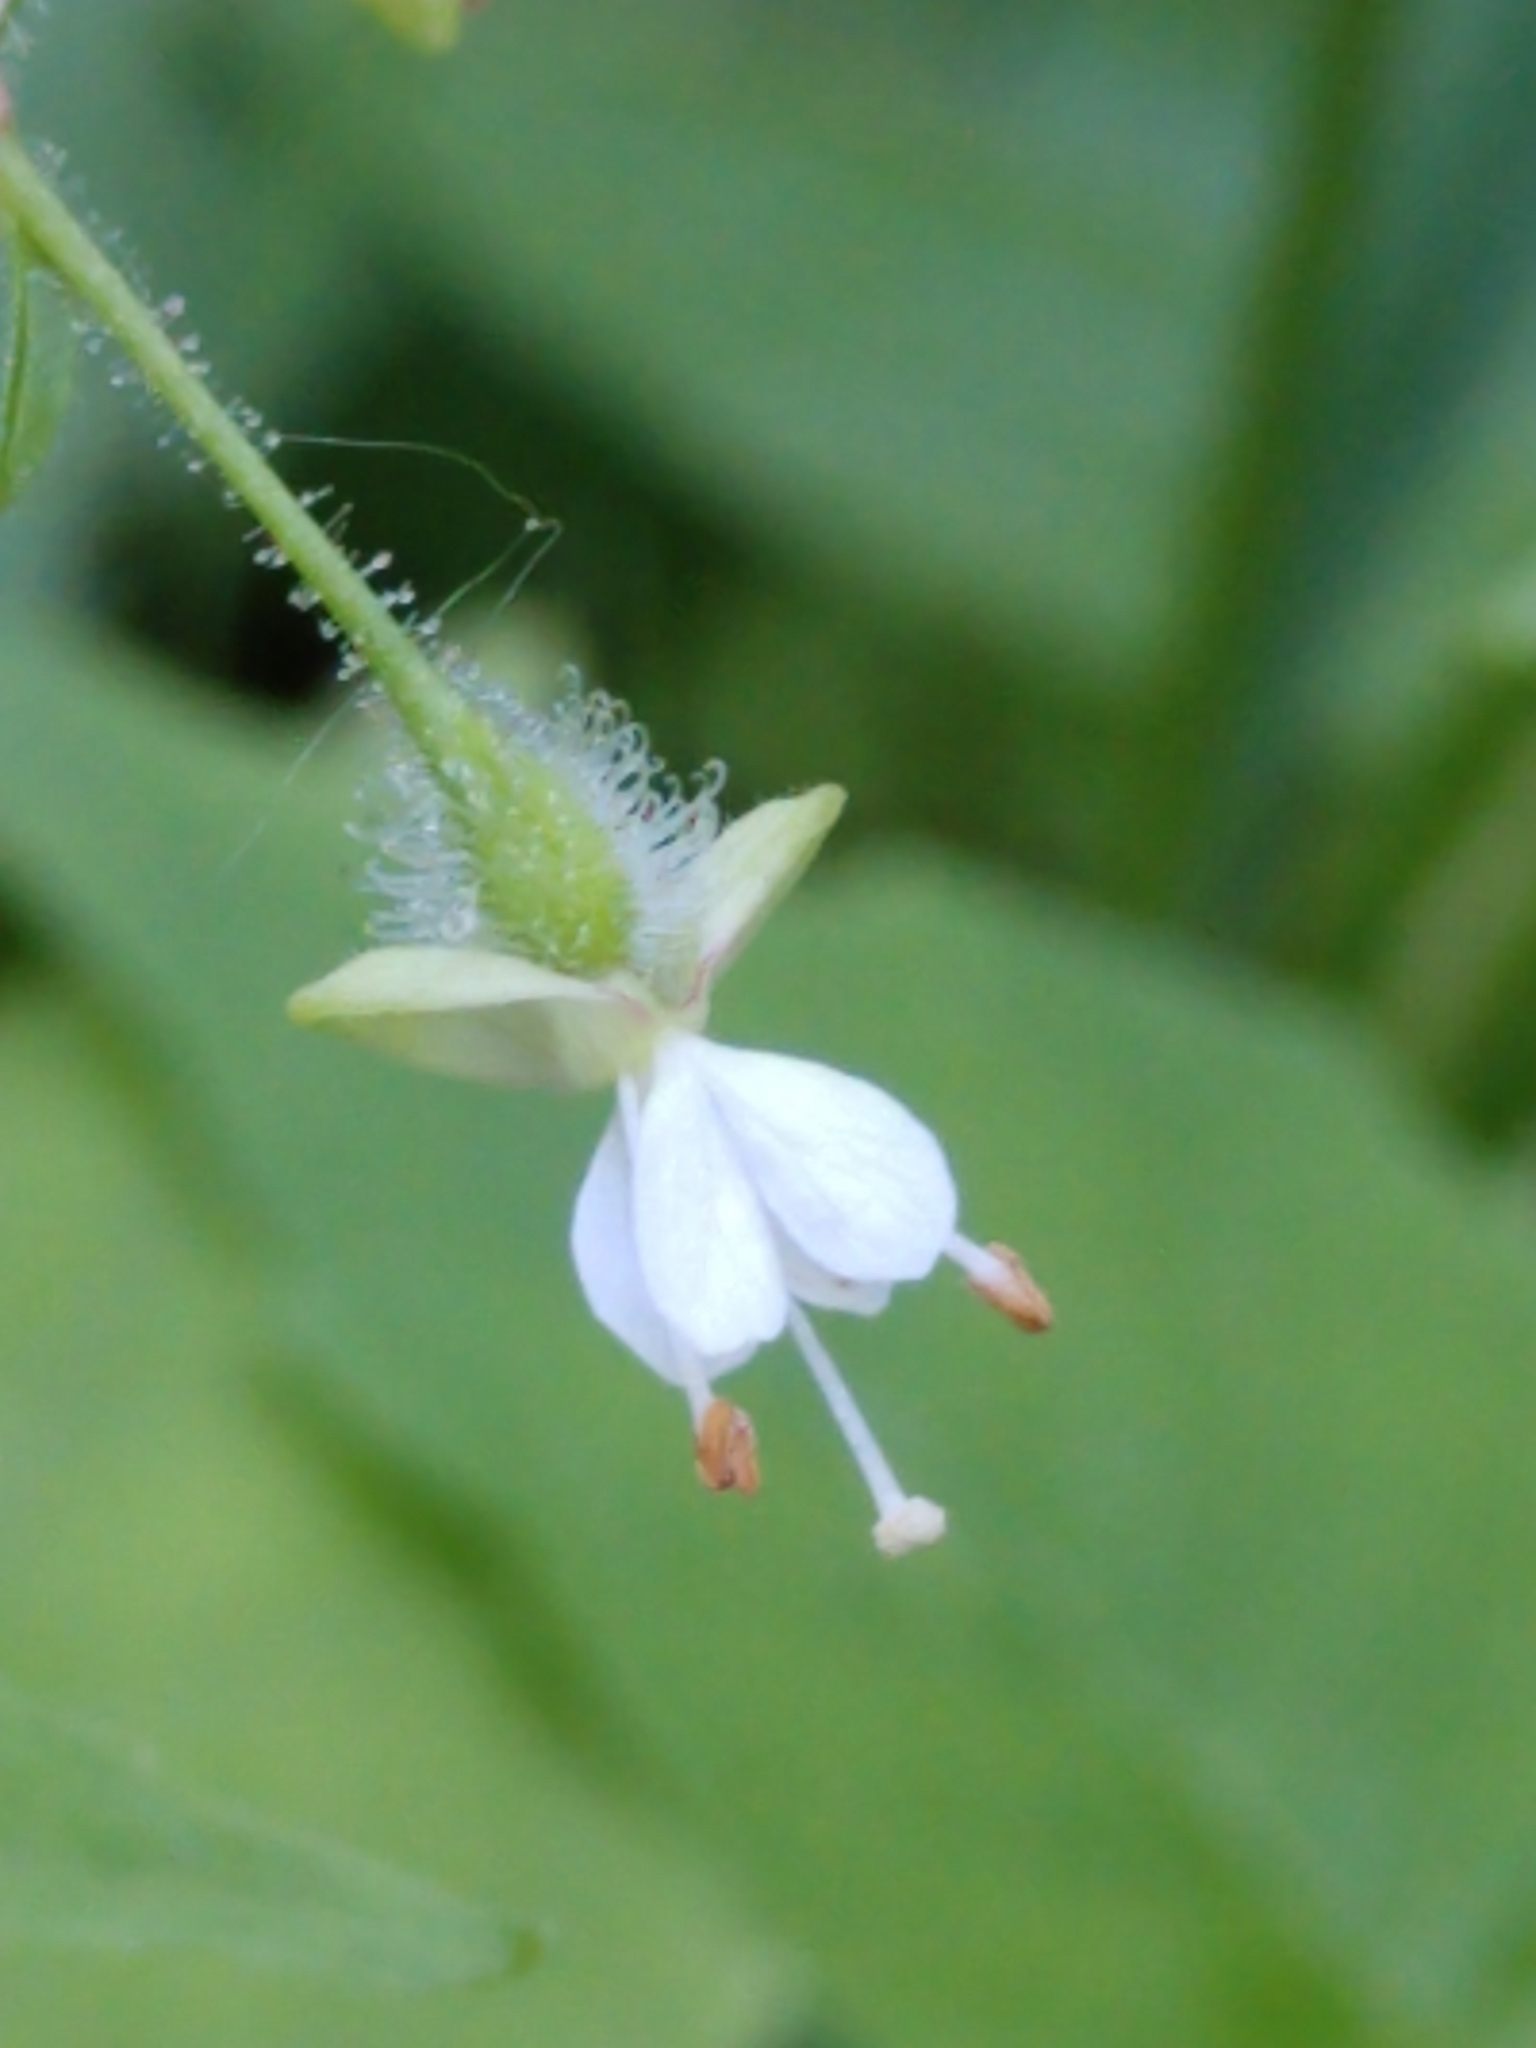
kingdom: Plantae
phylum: Tracheophyta
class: Magnoliopsida
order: Myrtales
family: Onagraceae
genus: Circaea
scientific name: Circaea canadensis
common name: Broad-leaved enchanter's nightshade
